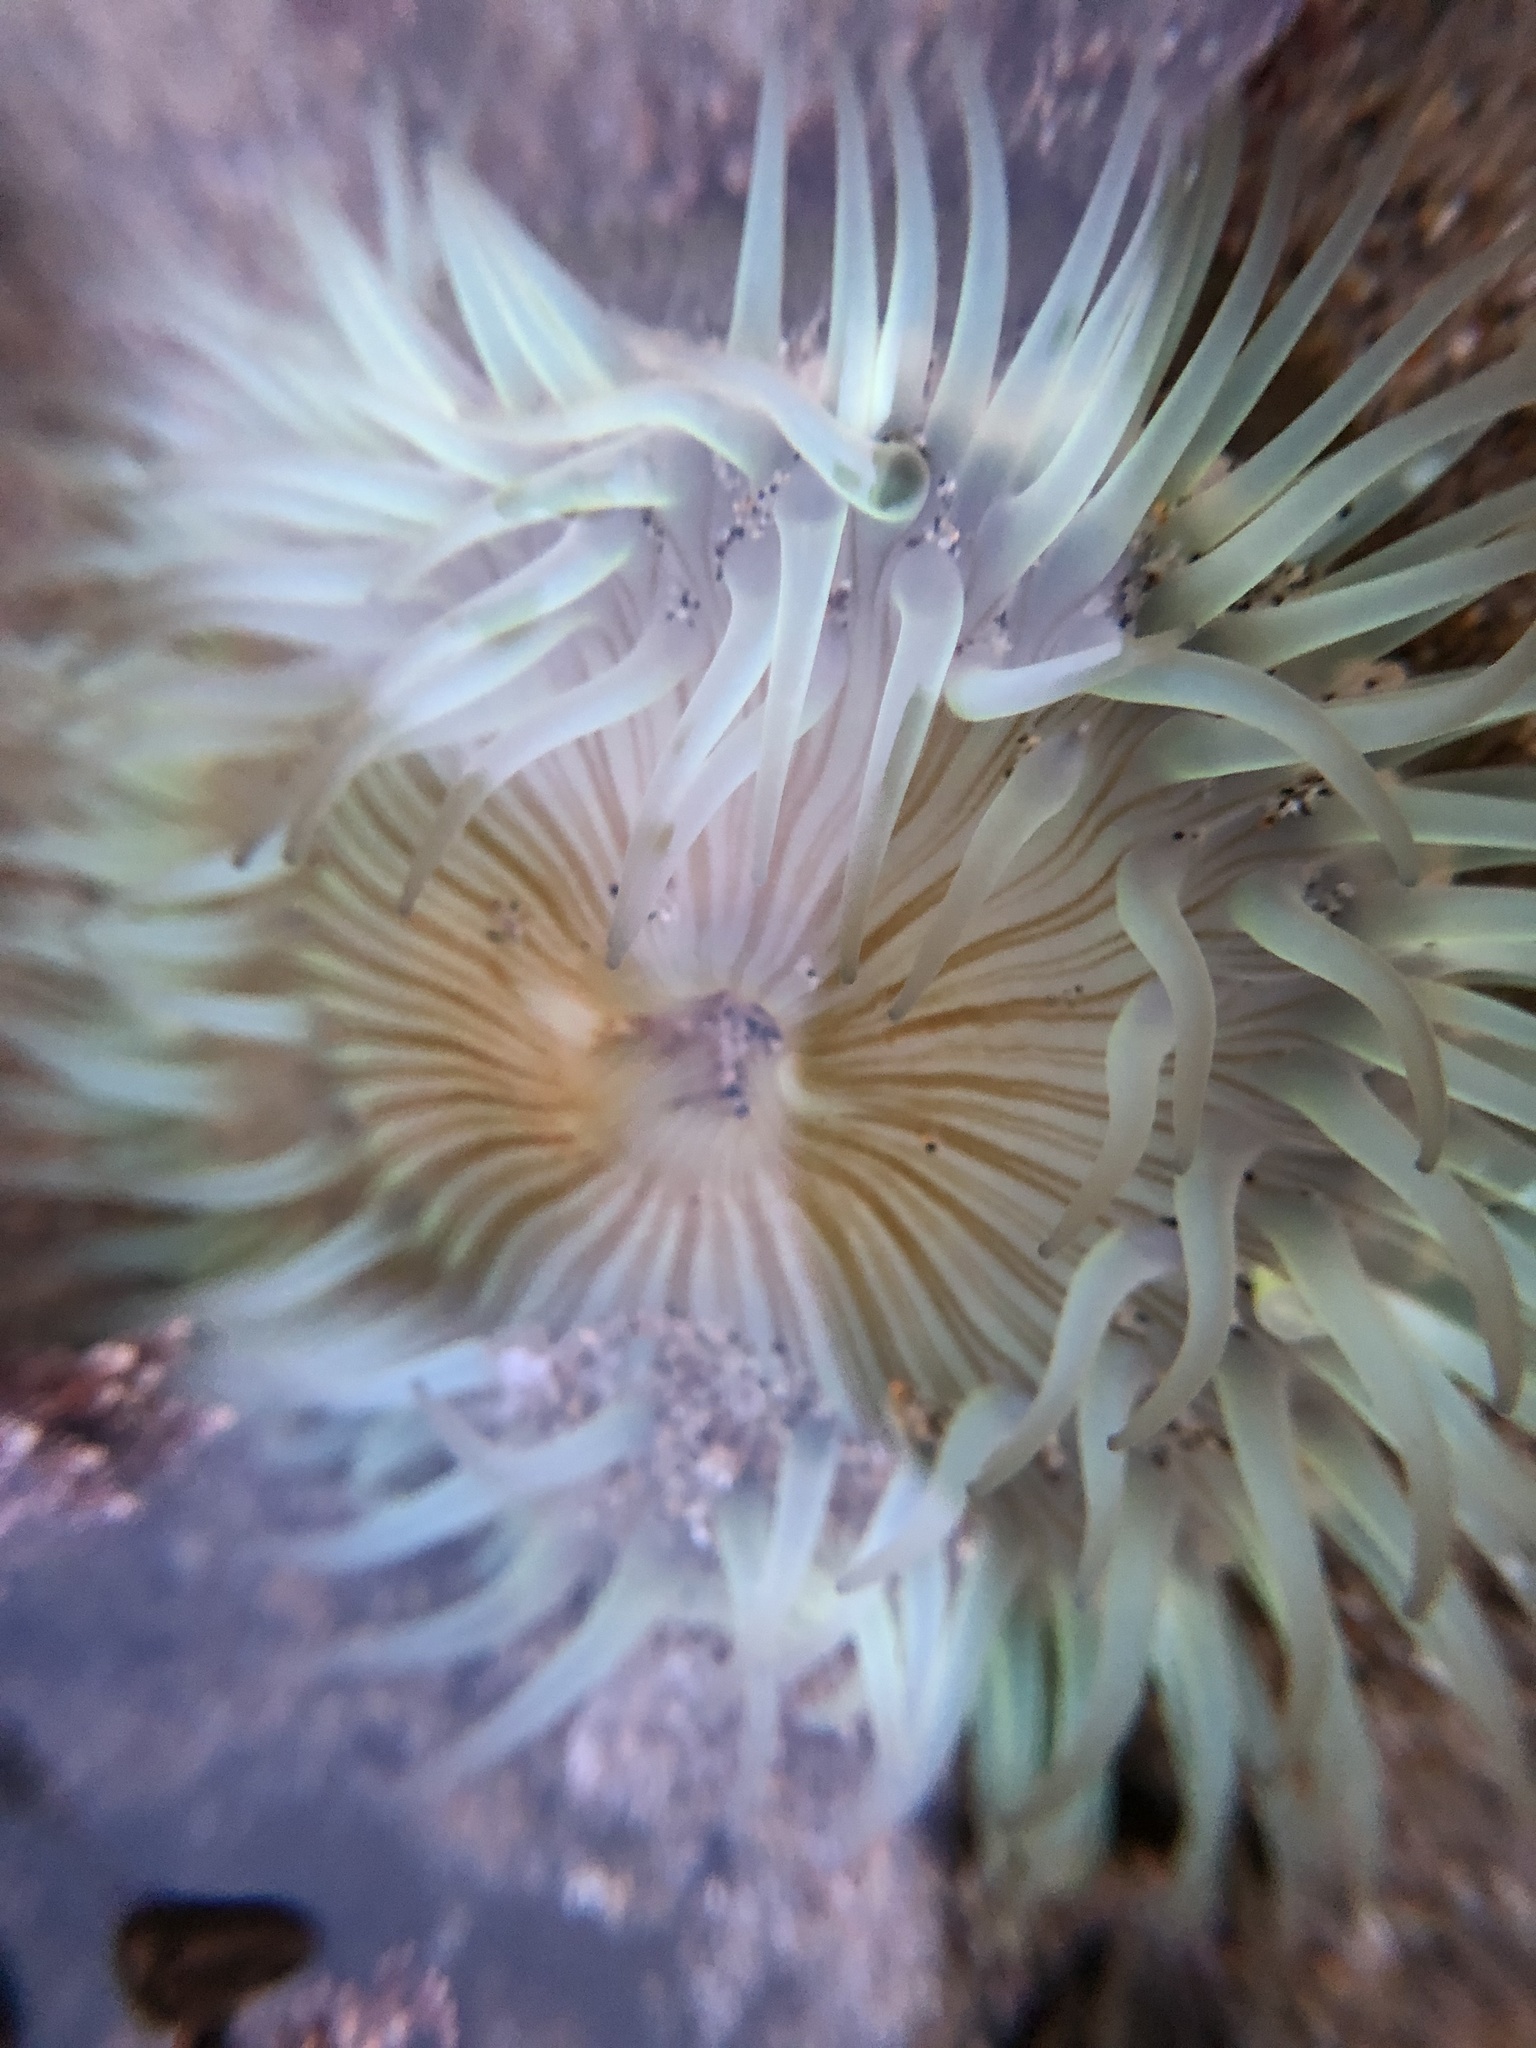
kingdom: Animalia
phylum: Cnidaria
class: Anthozoa
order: Actiniaria
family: Actiniidae
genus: Anthopleura
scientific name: Anthopleura sola
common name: Sun anemone
